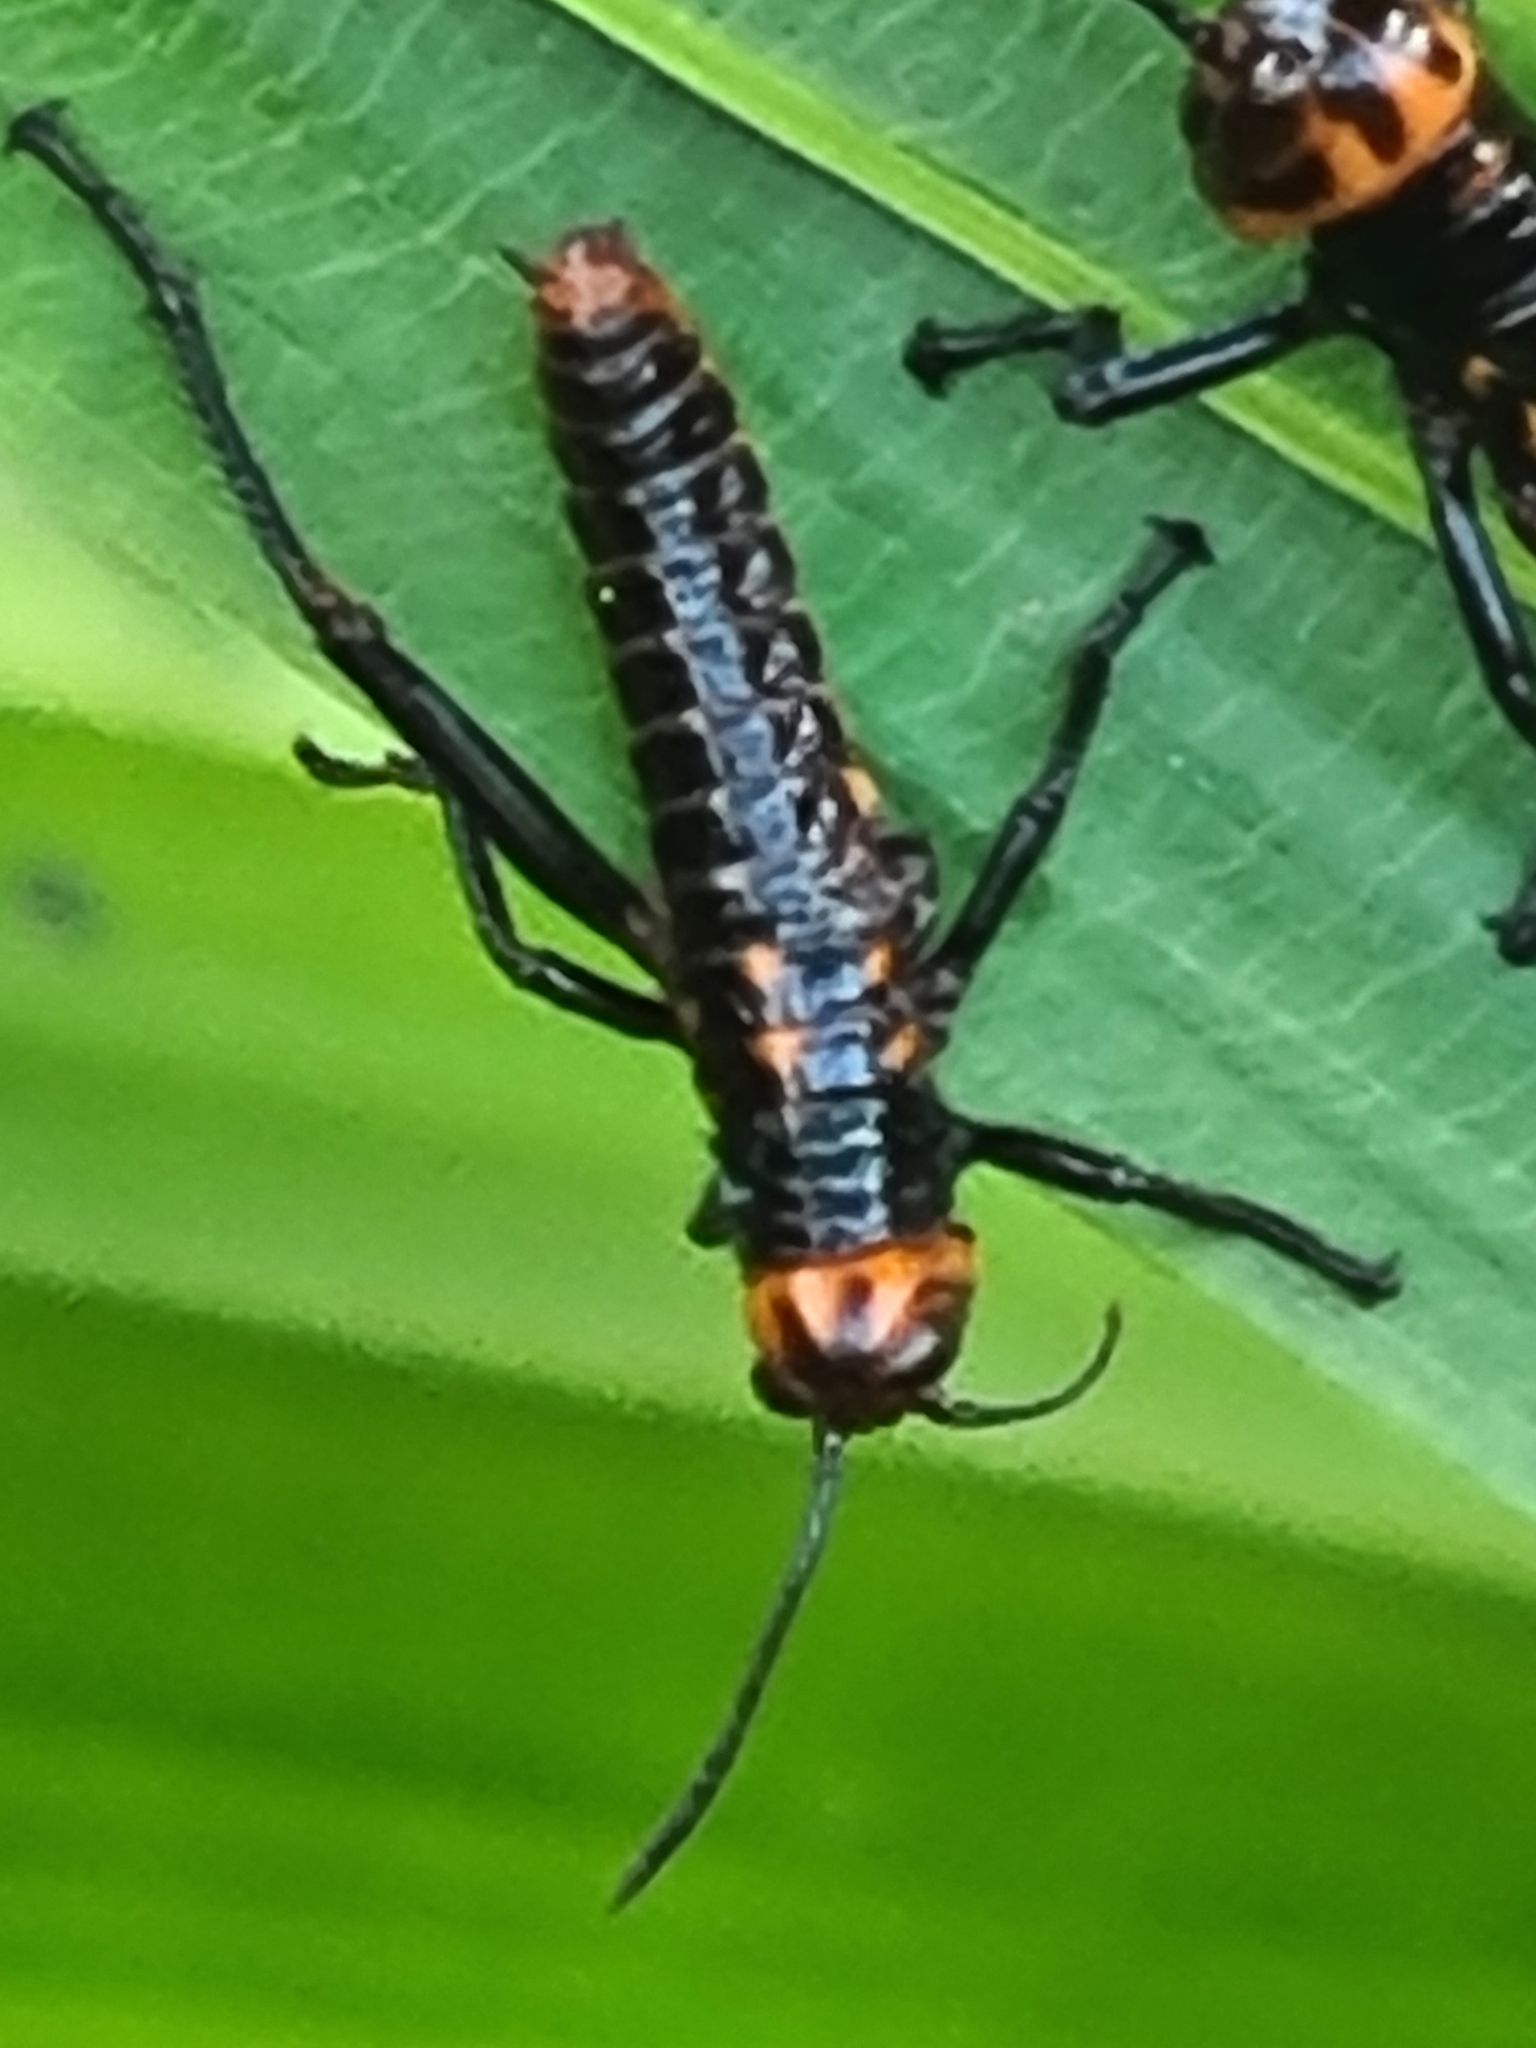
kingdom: Animalia
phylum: Arthropoda
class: Insecta
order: Orthoptera
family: Romaleidae
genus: Tropidacris
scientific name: Tropidacris collaris
